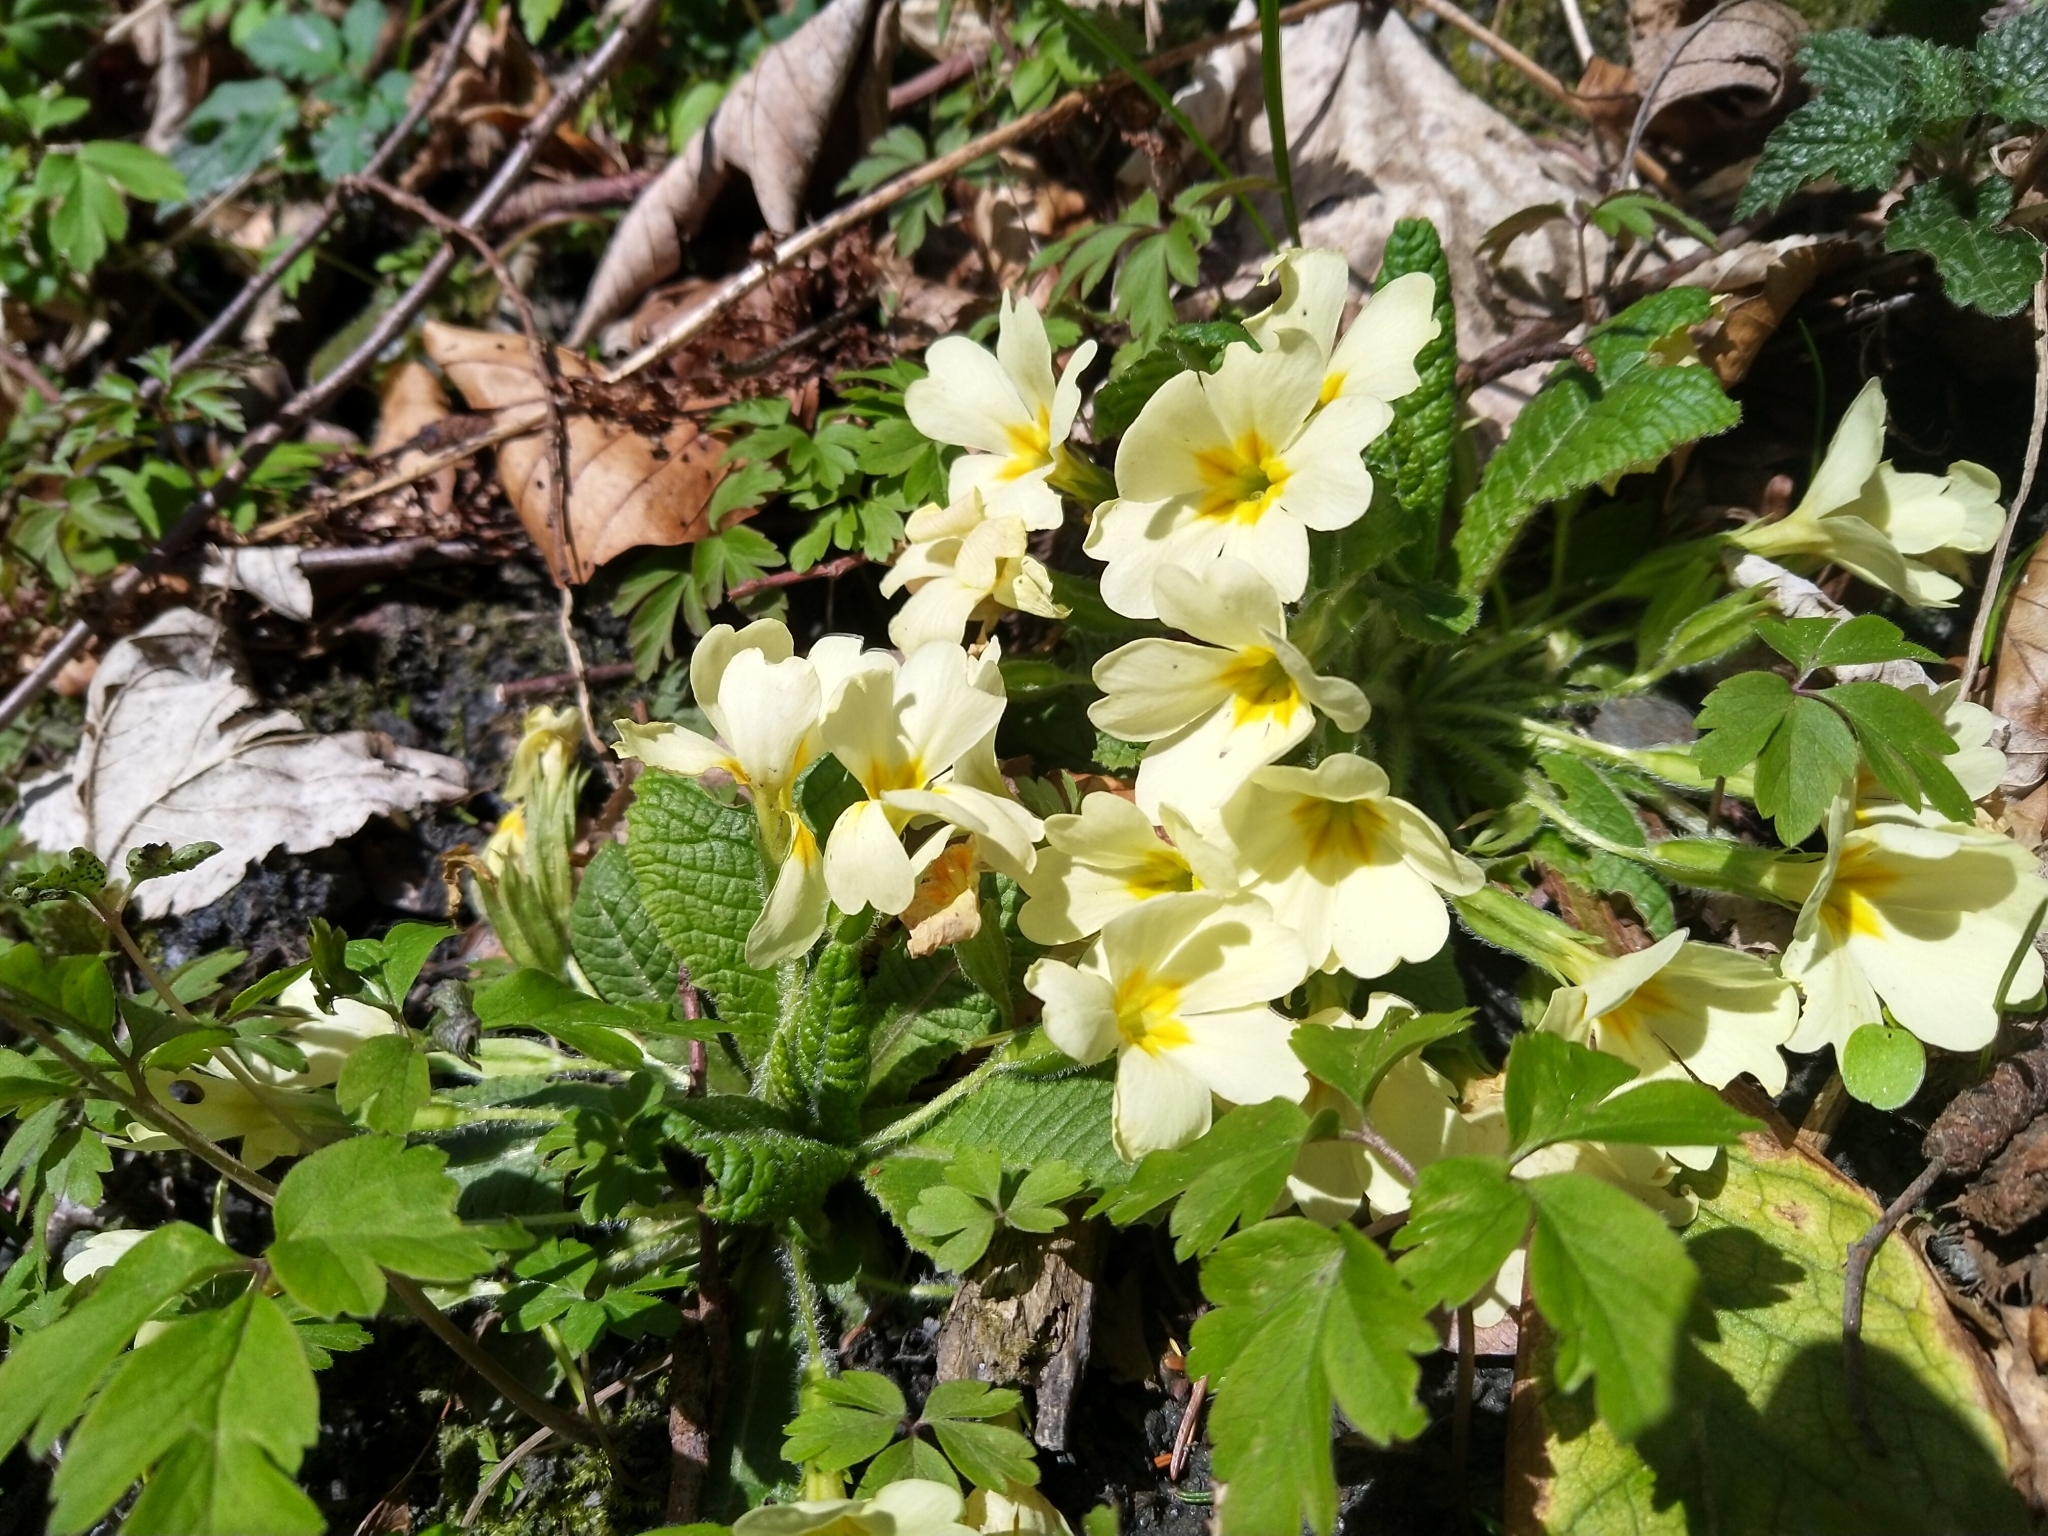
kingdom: Plantae
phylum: Tracheophyta
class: Magnoliopsida
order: Ericales
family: Primulaceae
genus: Primula
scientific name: Primula vulgaris
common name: Primrose
